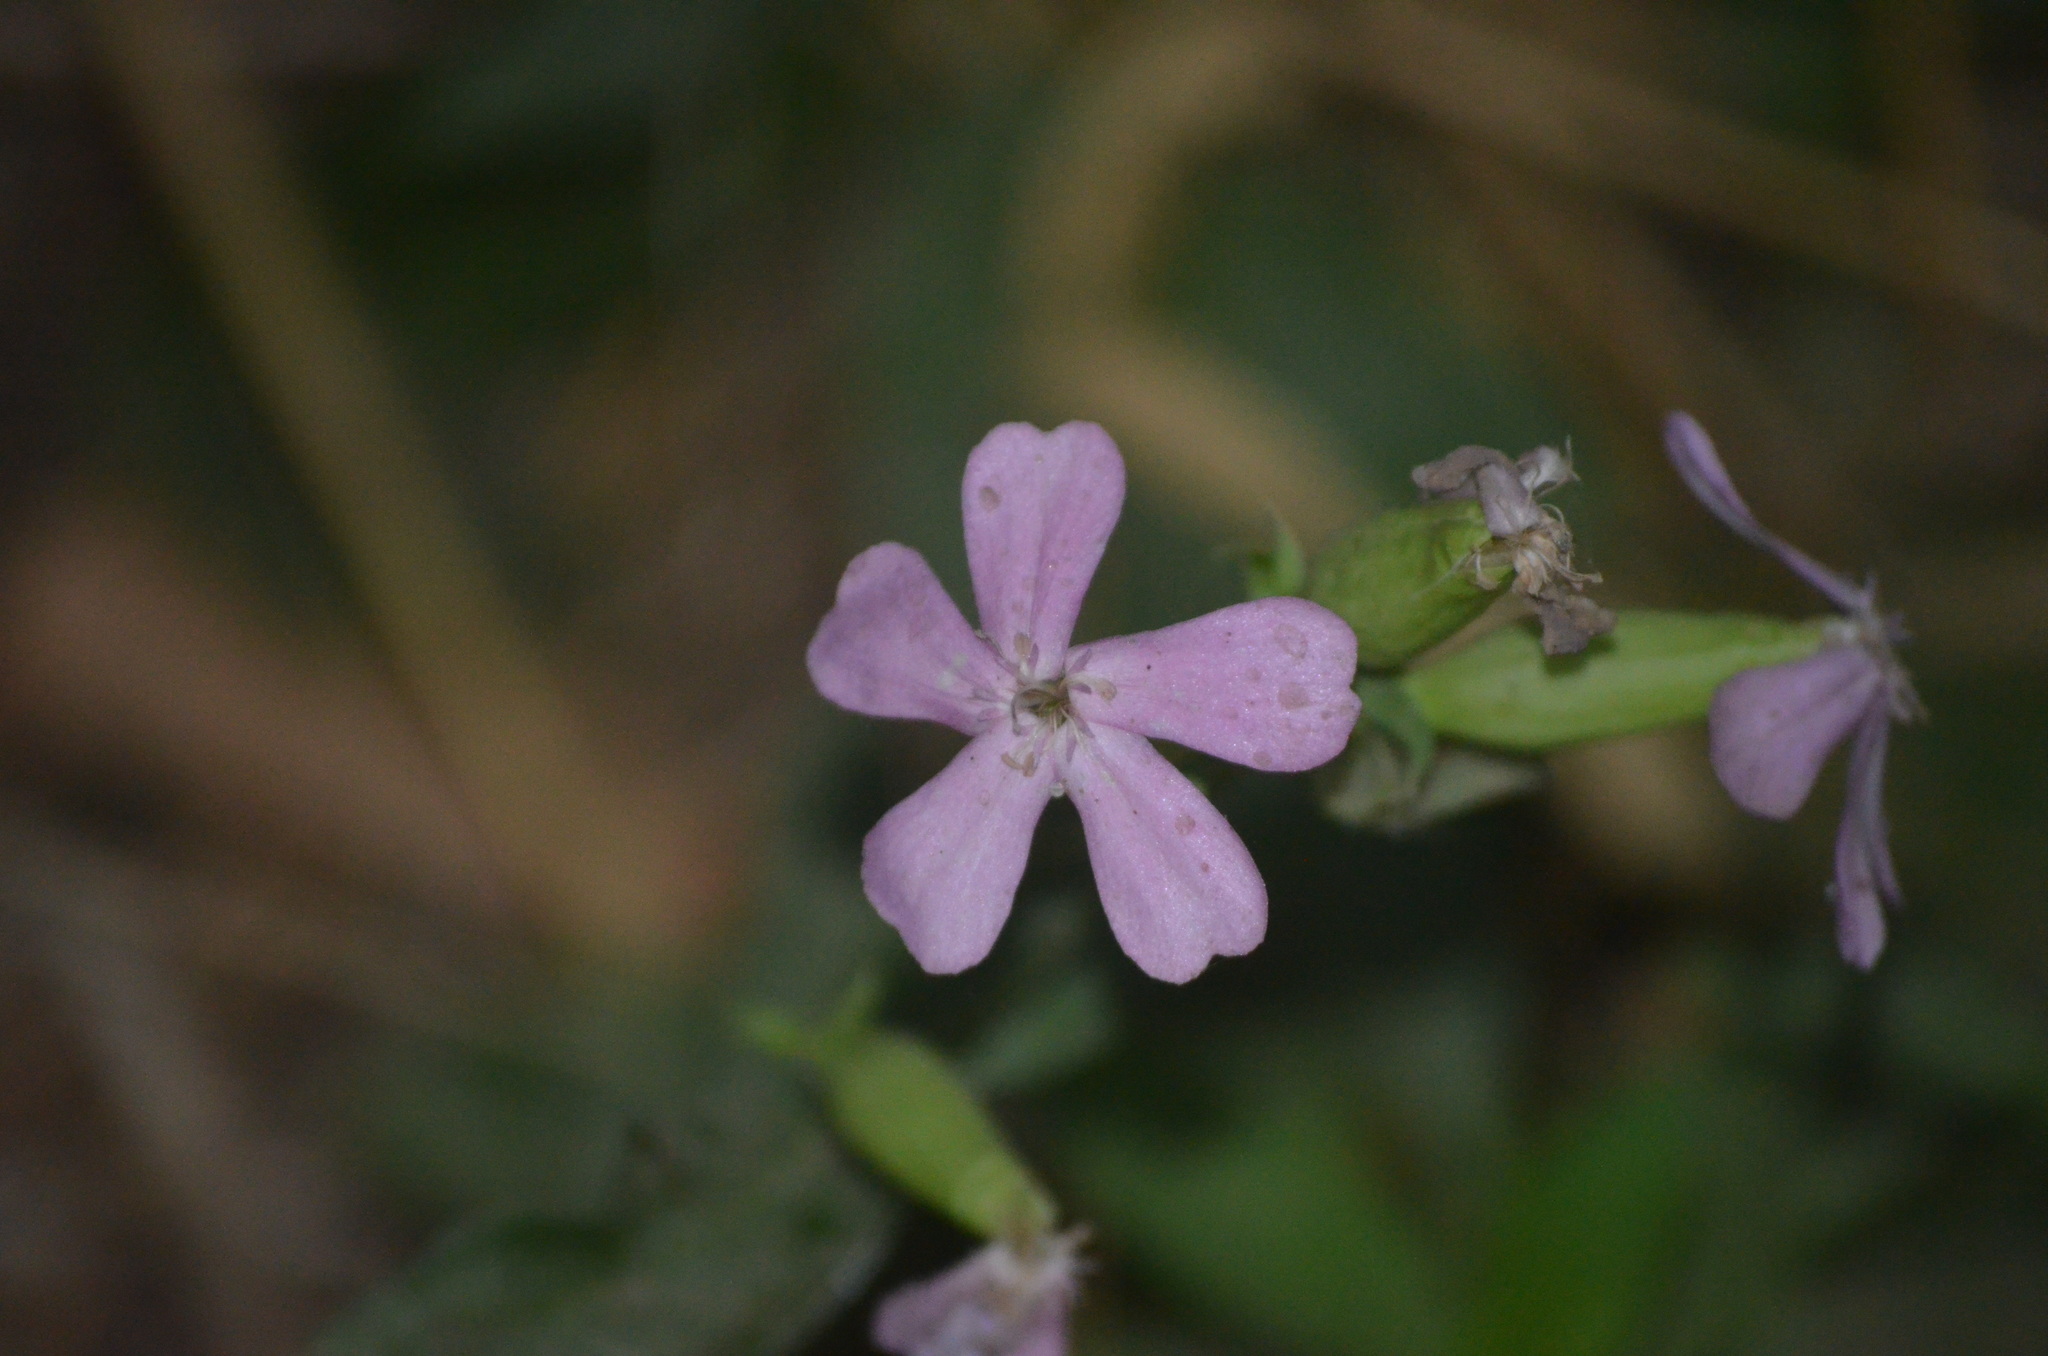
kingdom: Plantae
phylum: Tracheophyta
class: Magnoliopsida
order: Caryophyllales
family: Caryophyllaceae
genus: Saponaria
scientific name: Saponaria officinalis
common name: Soapwort
